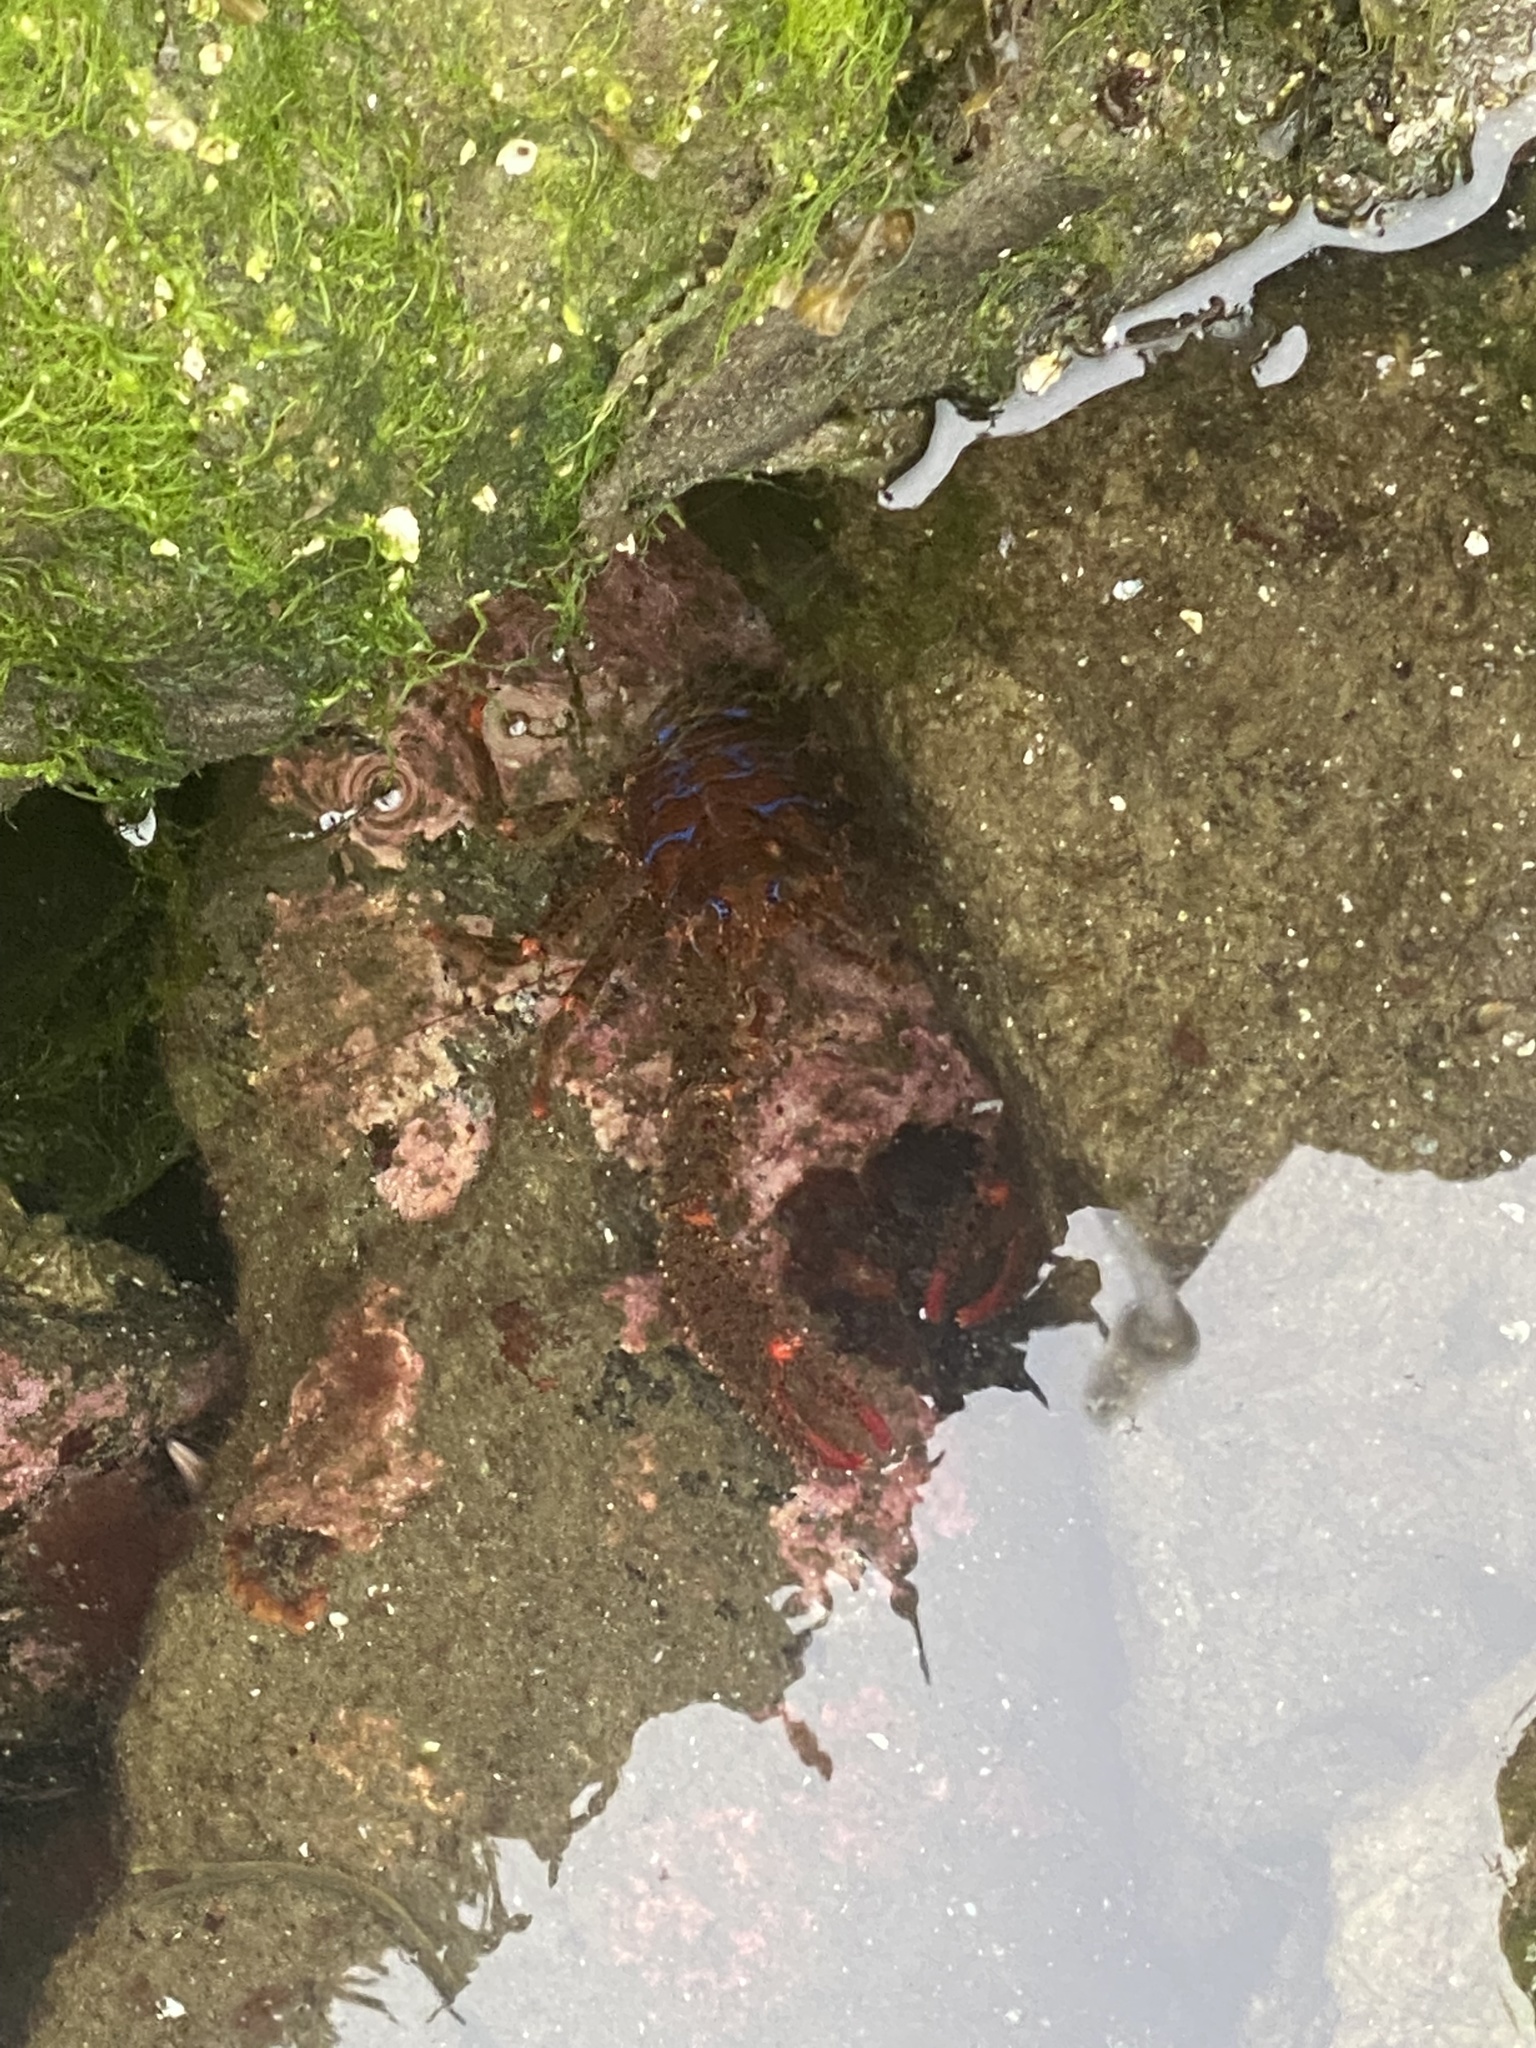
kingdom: Animalia
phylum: Arthropoda
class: Malacostraca
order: Decapoda
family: Galatheidae
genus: Galathea
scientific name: Galathea strigosa
